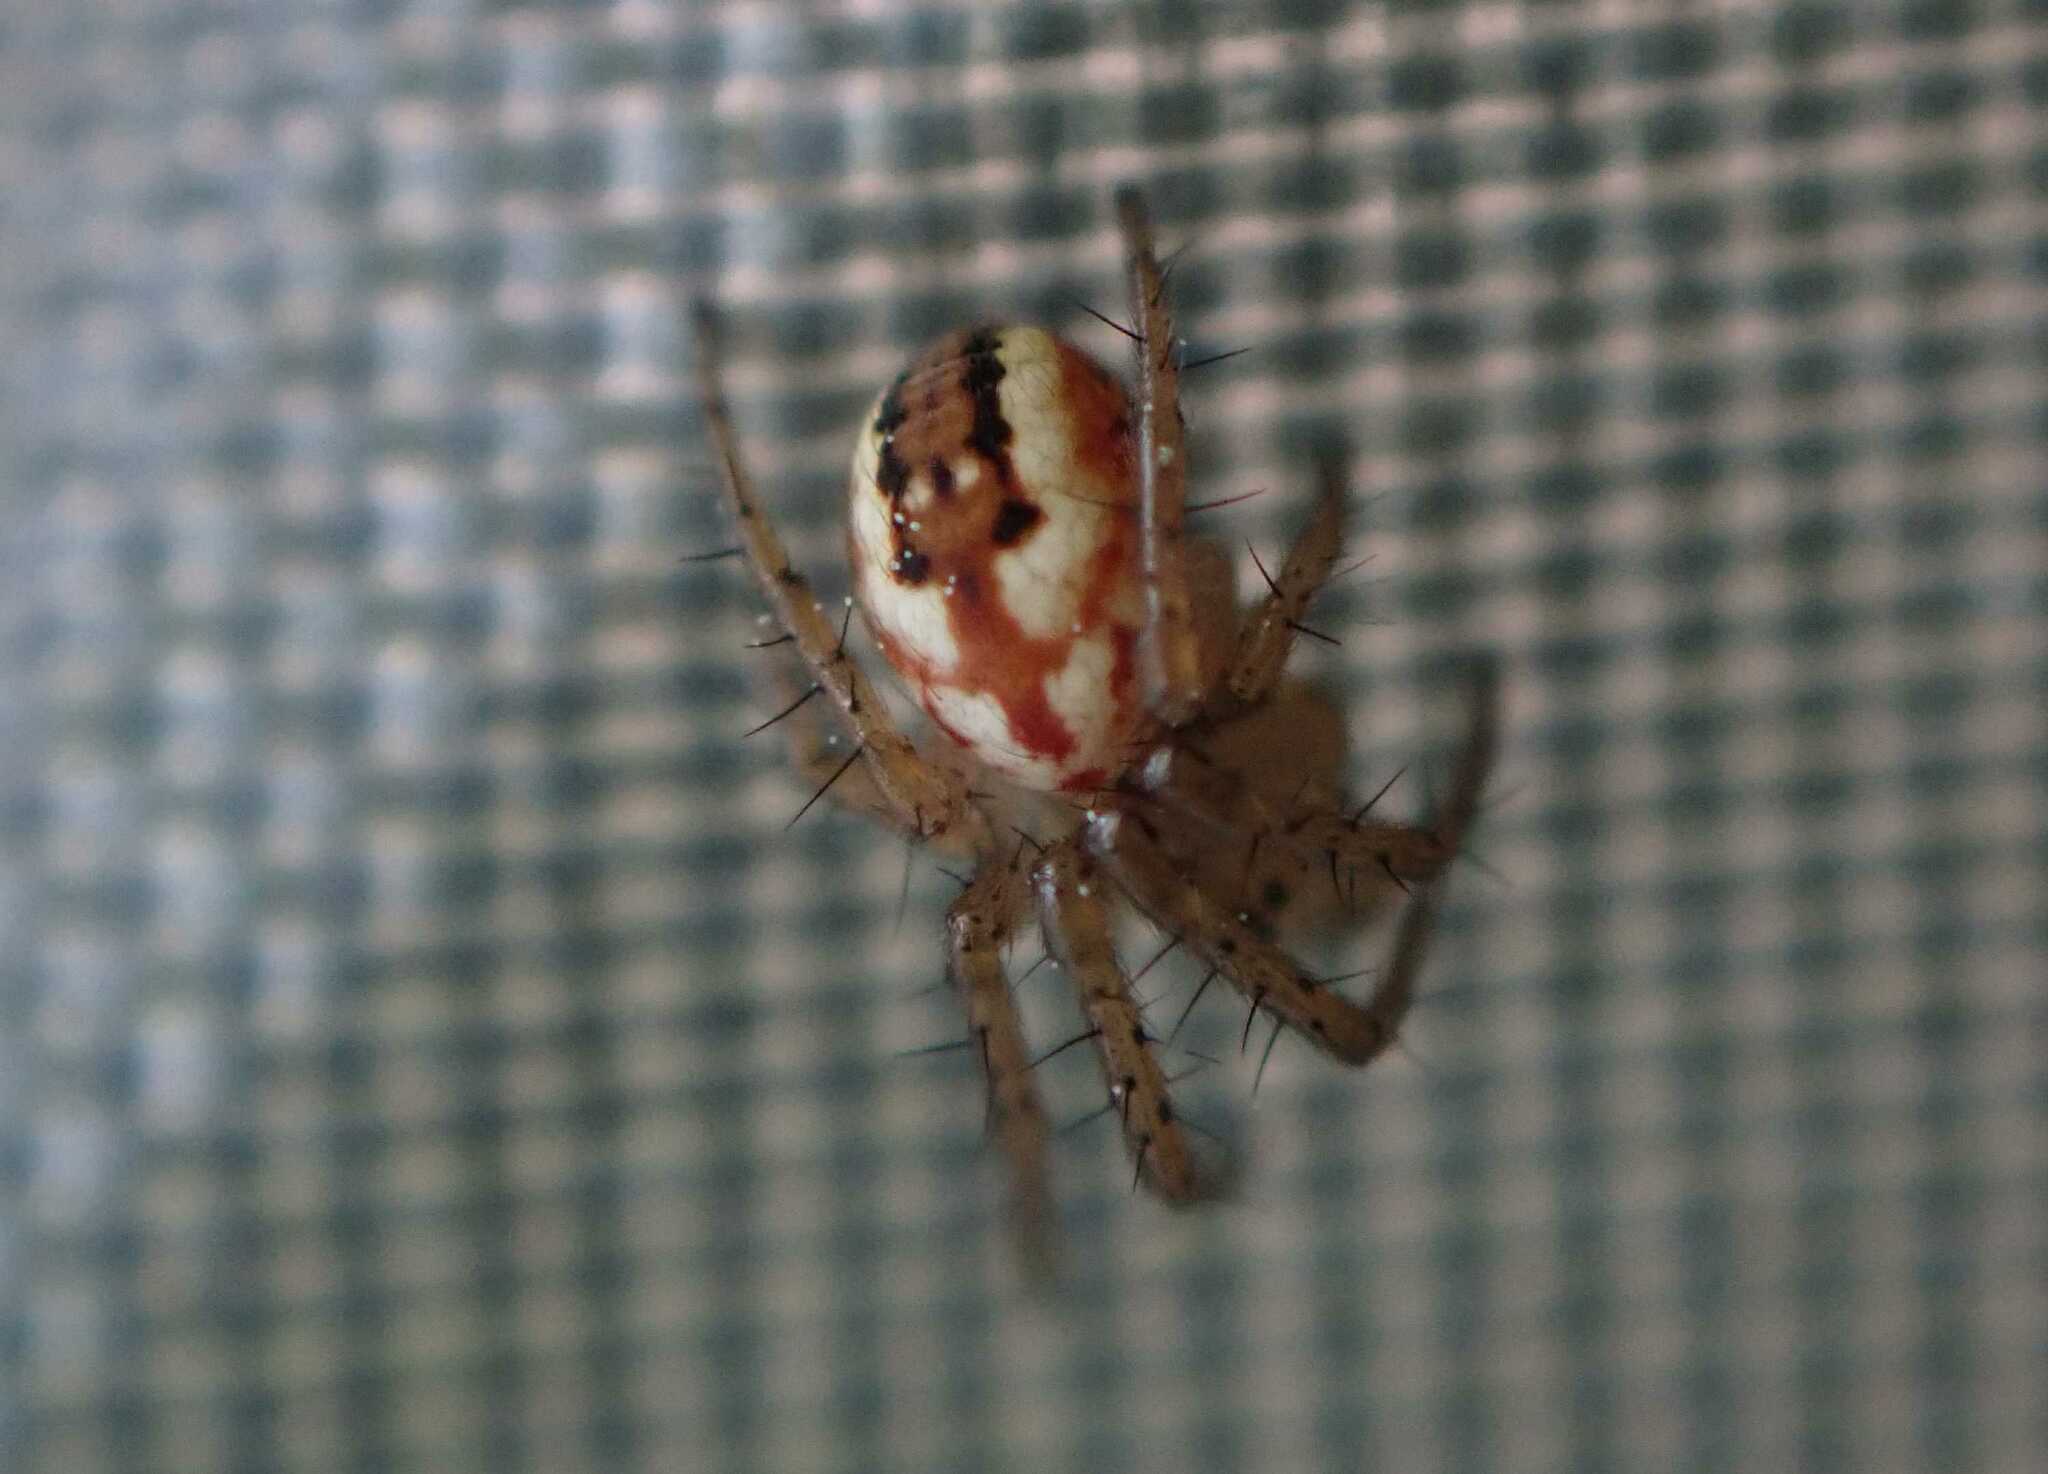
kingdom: Animalia
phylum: Arthropoda
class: Arachnida
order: Araneae
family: Araneidae
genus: Mangora
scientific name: Mangora acalypha
